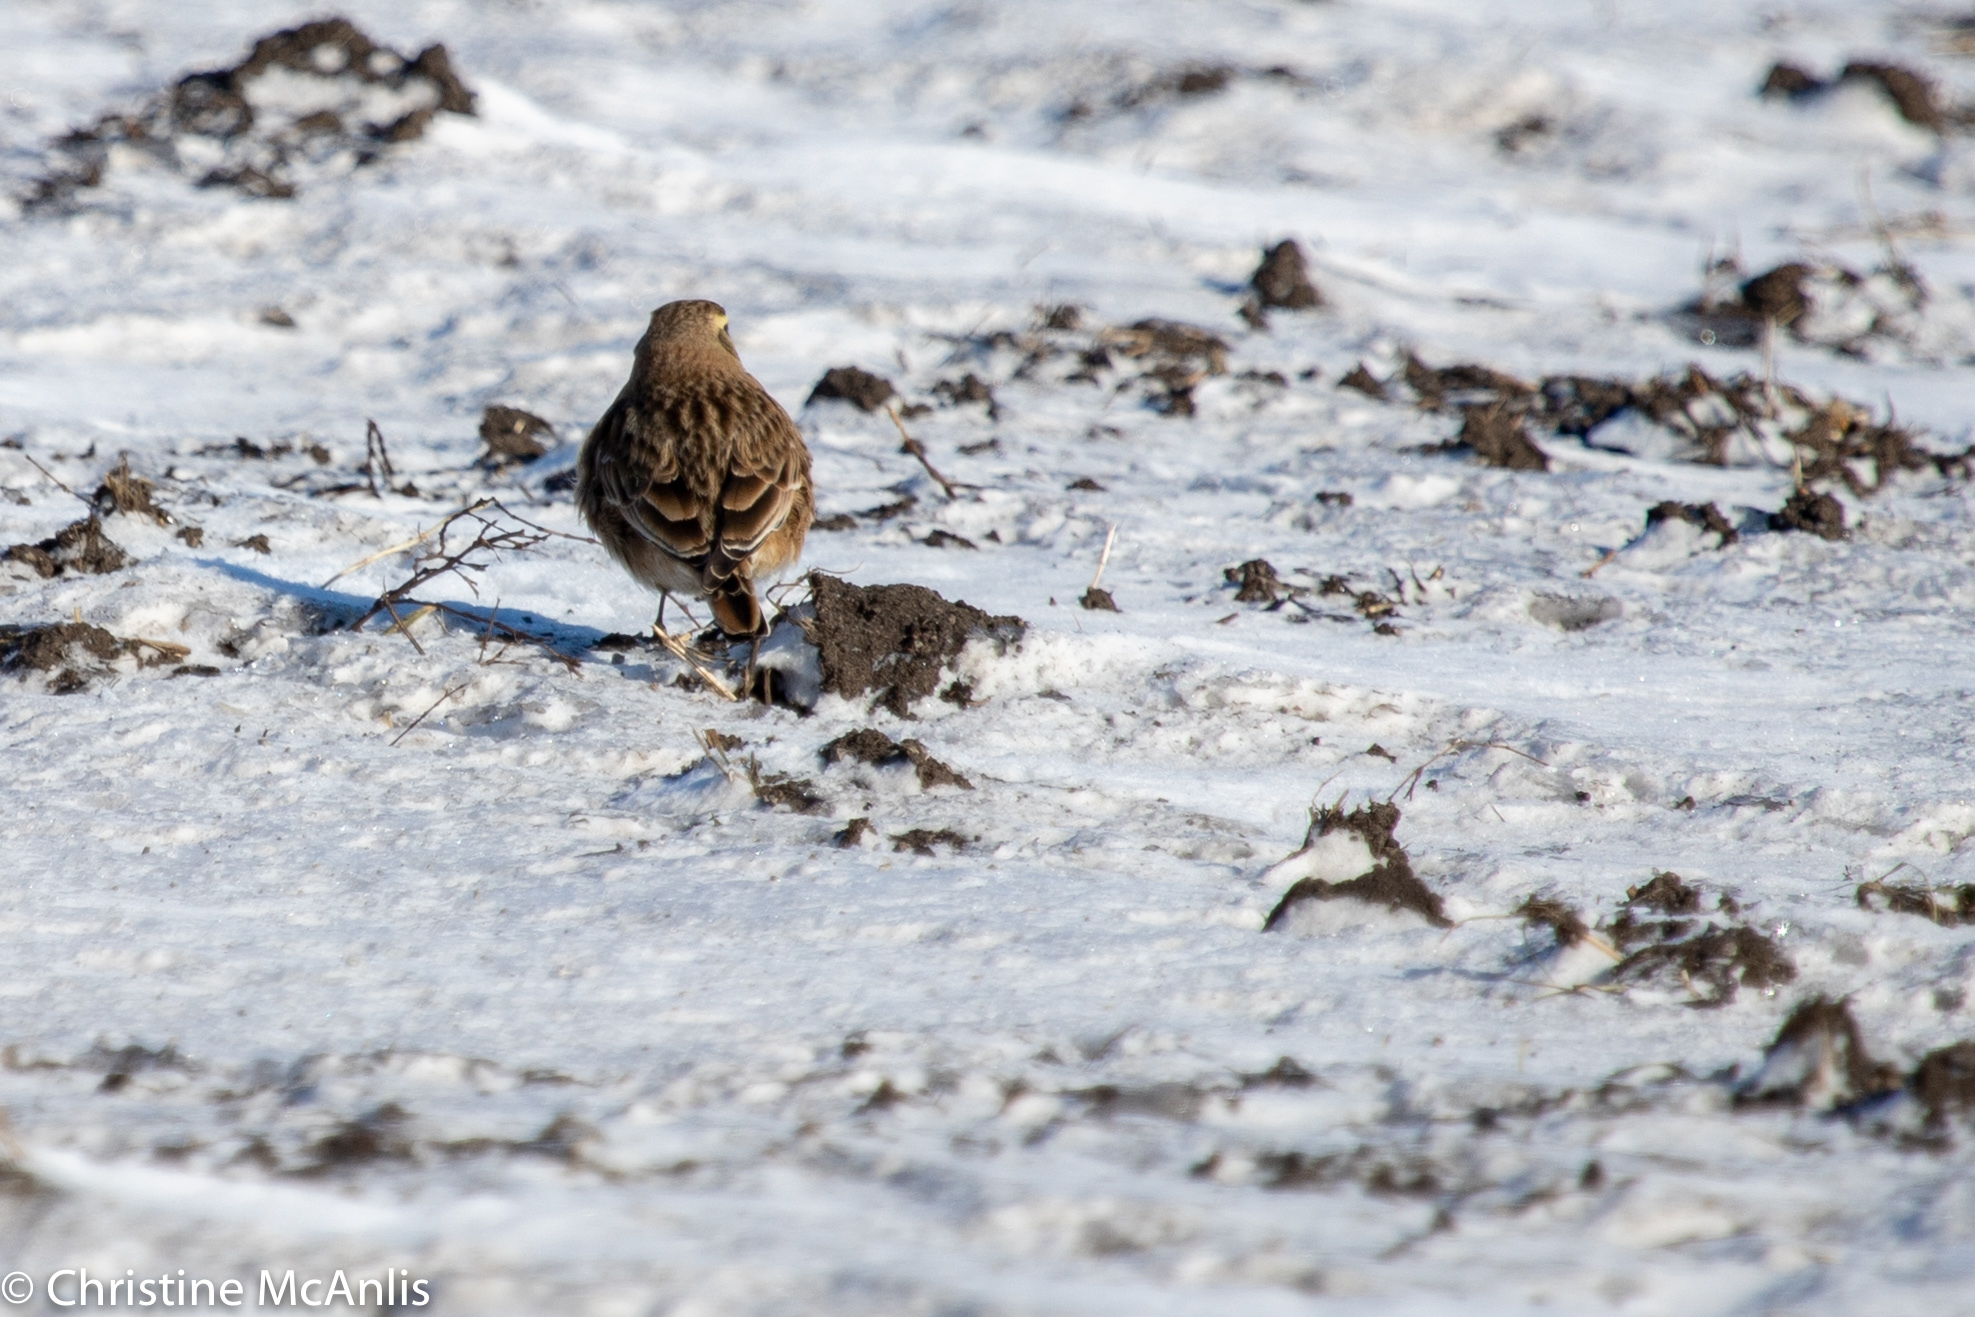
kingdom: Animalia
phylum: Chordata
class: Aves
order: Passeriformes
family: Alaudidae
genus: Eremophila
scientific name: Eremophila alpestris
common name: Horned lark
